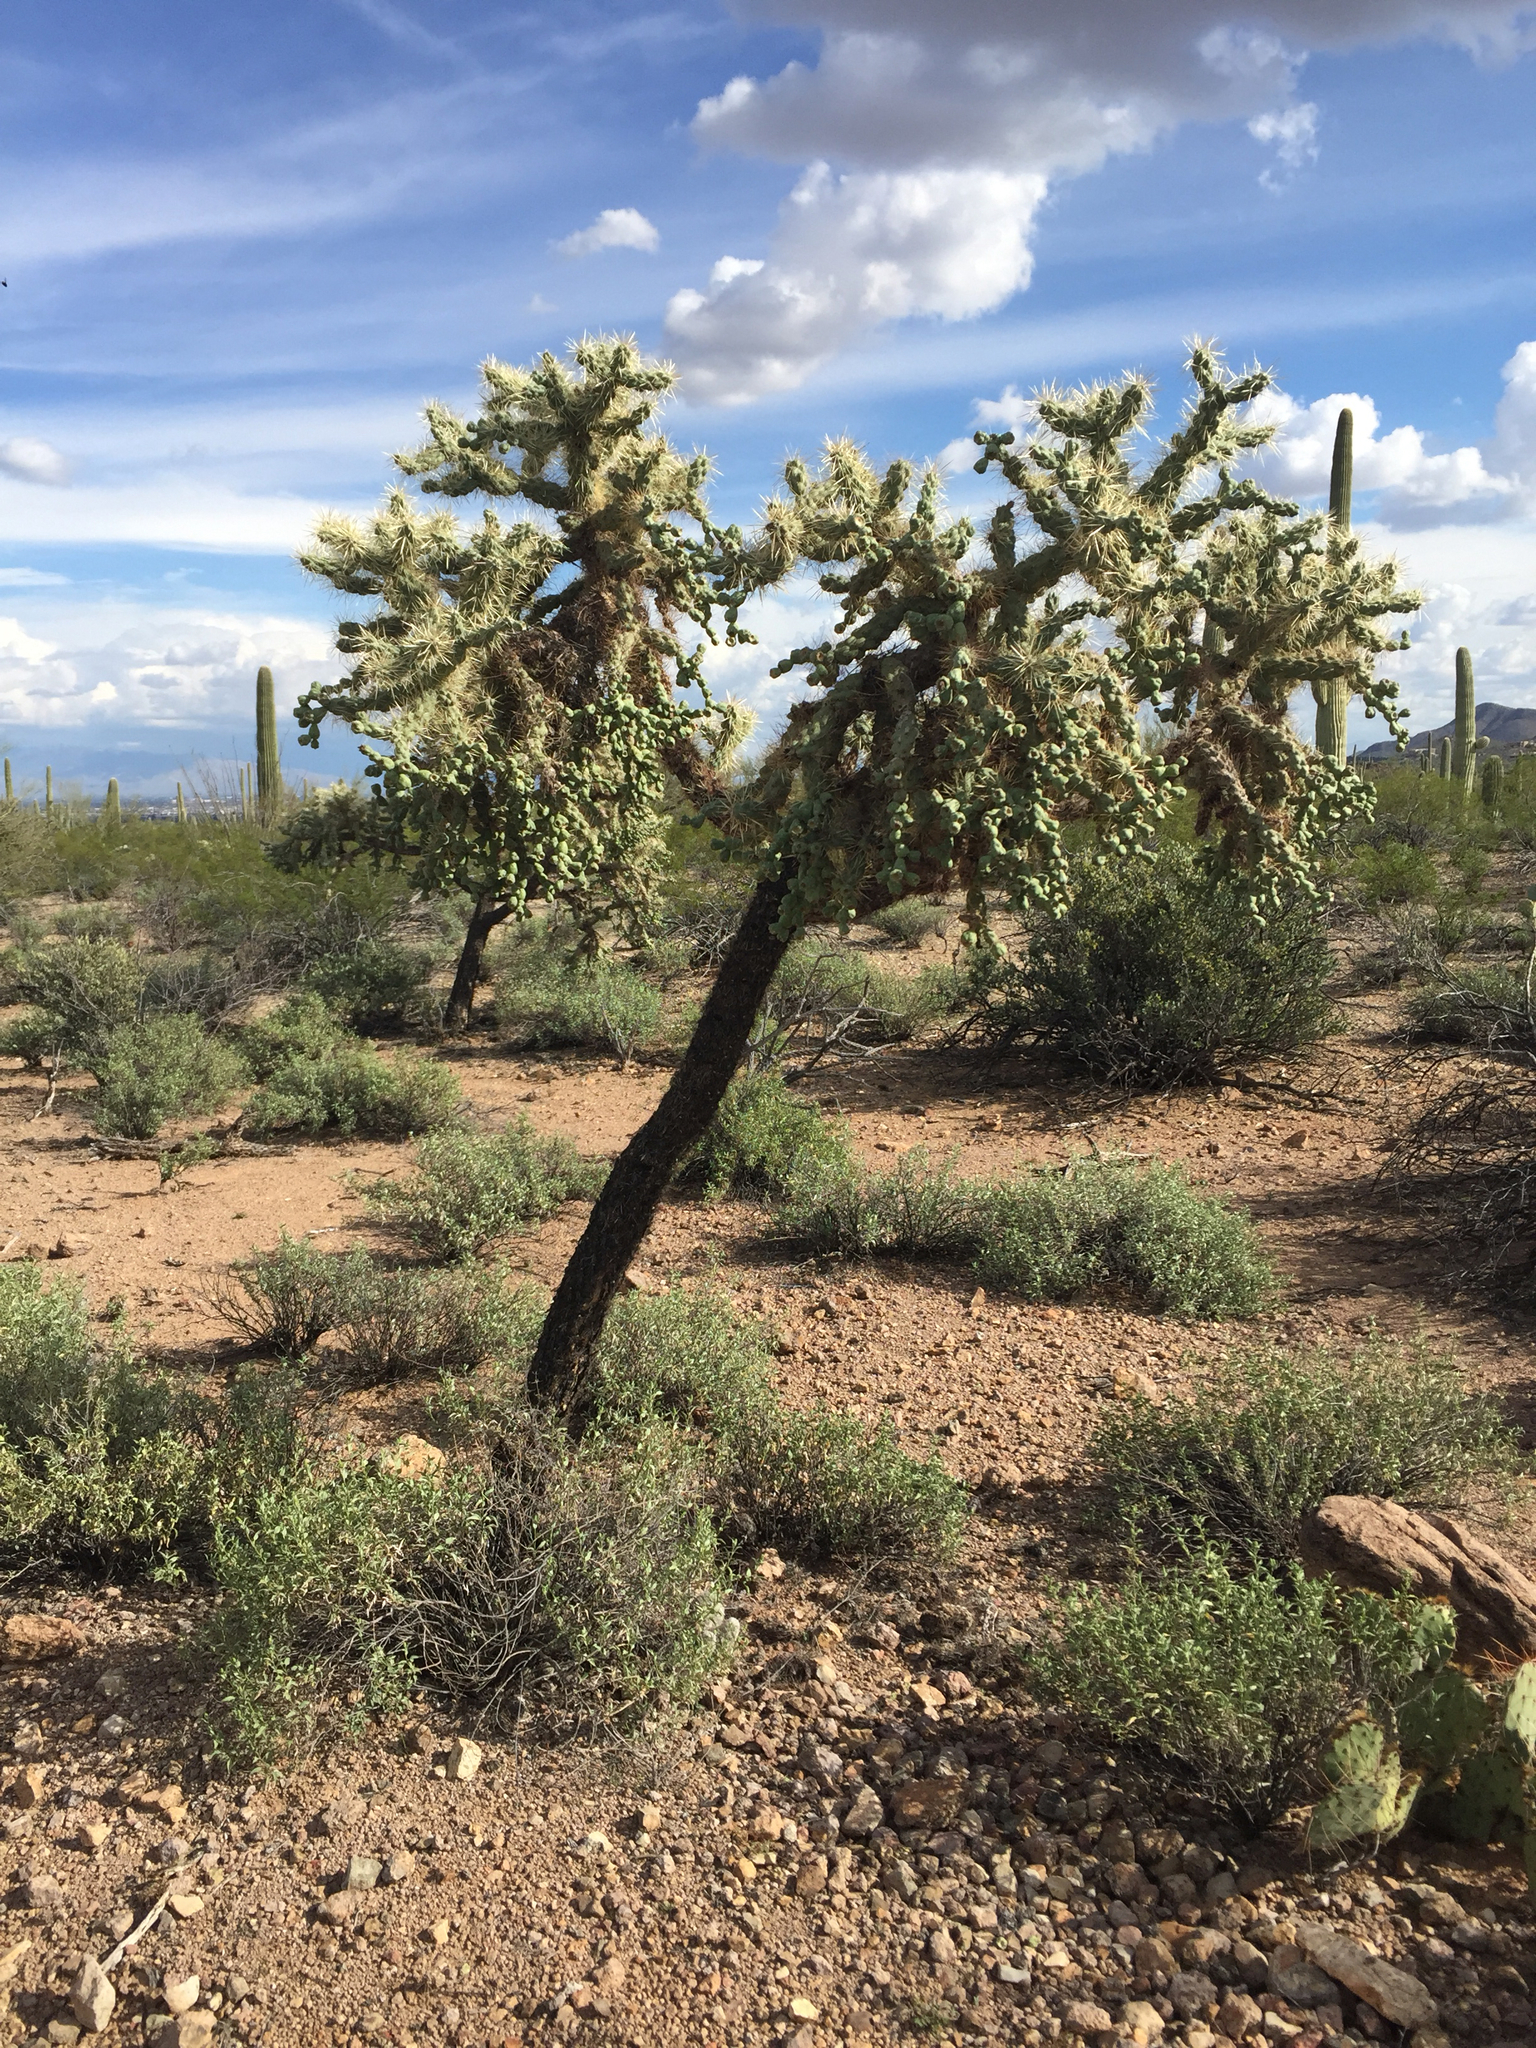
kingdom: Plantae
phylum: Tracheophyta
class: Magnoliopsida
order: Caryophyllales
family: Cactaceae
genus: Cylindropuntia
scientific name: Cylindropuntia fulgida
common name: Jumping cholla
